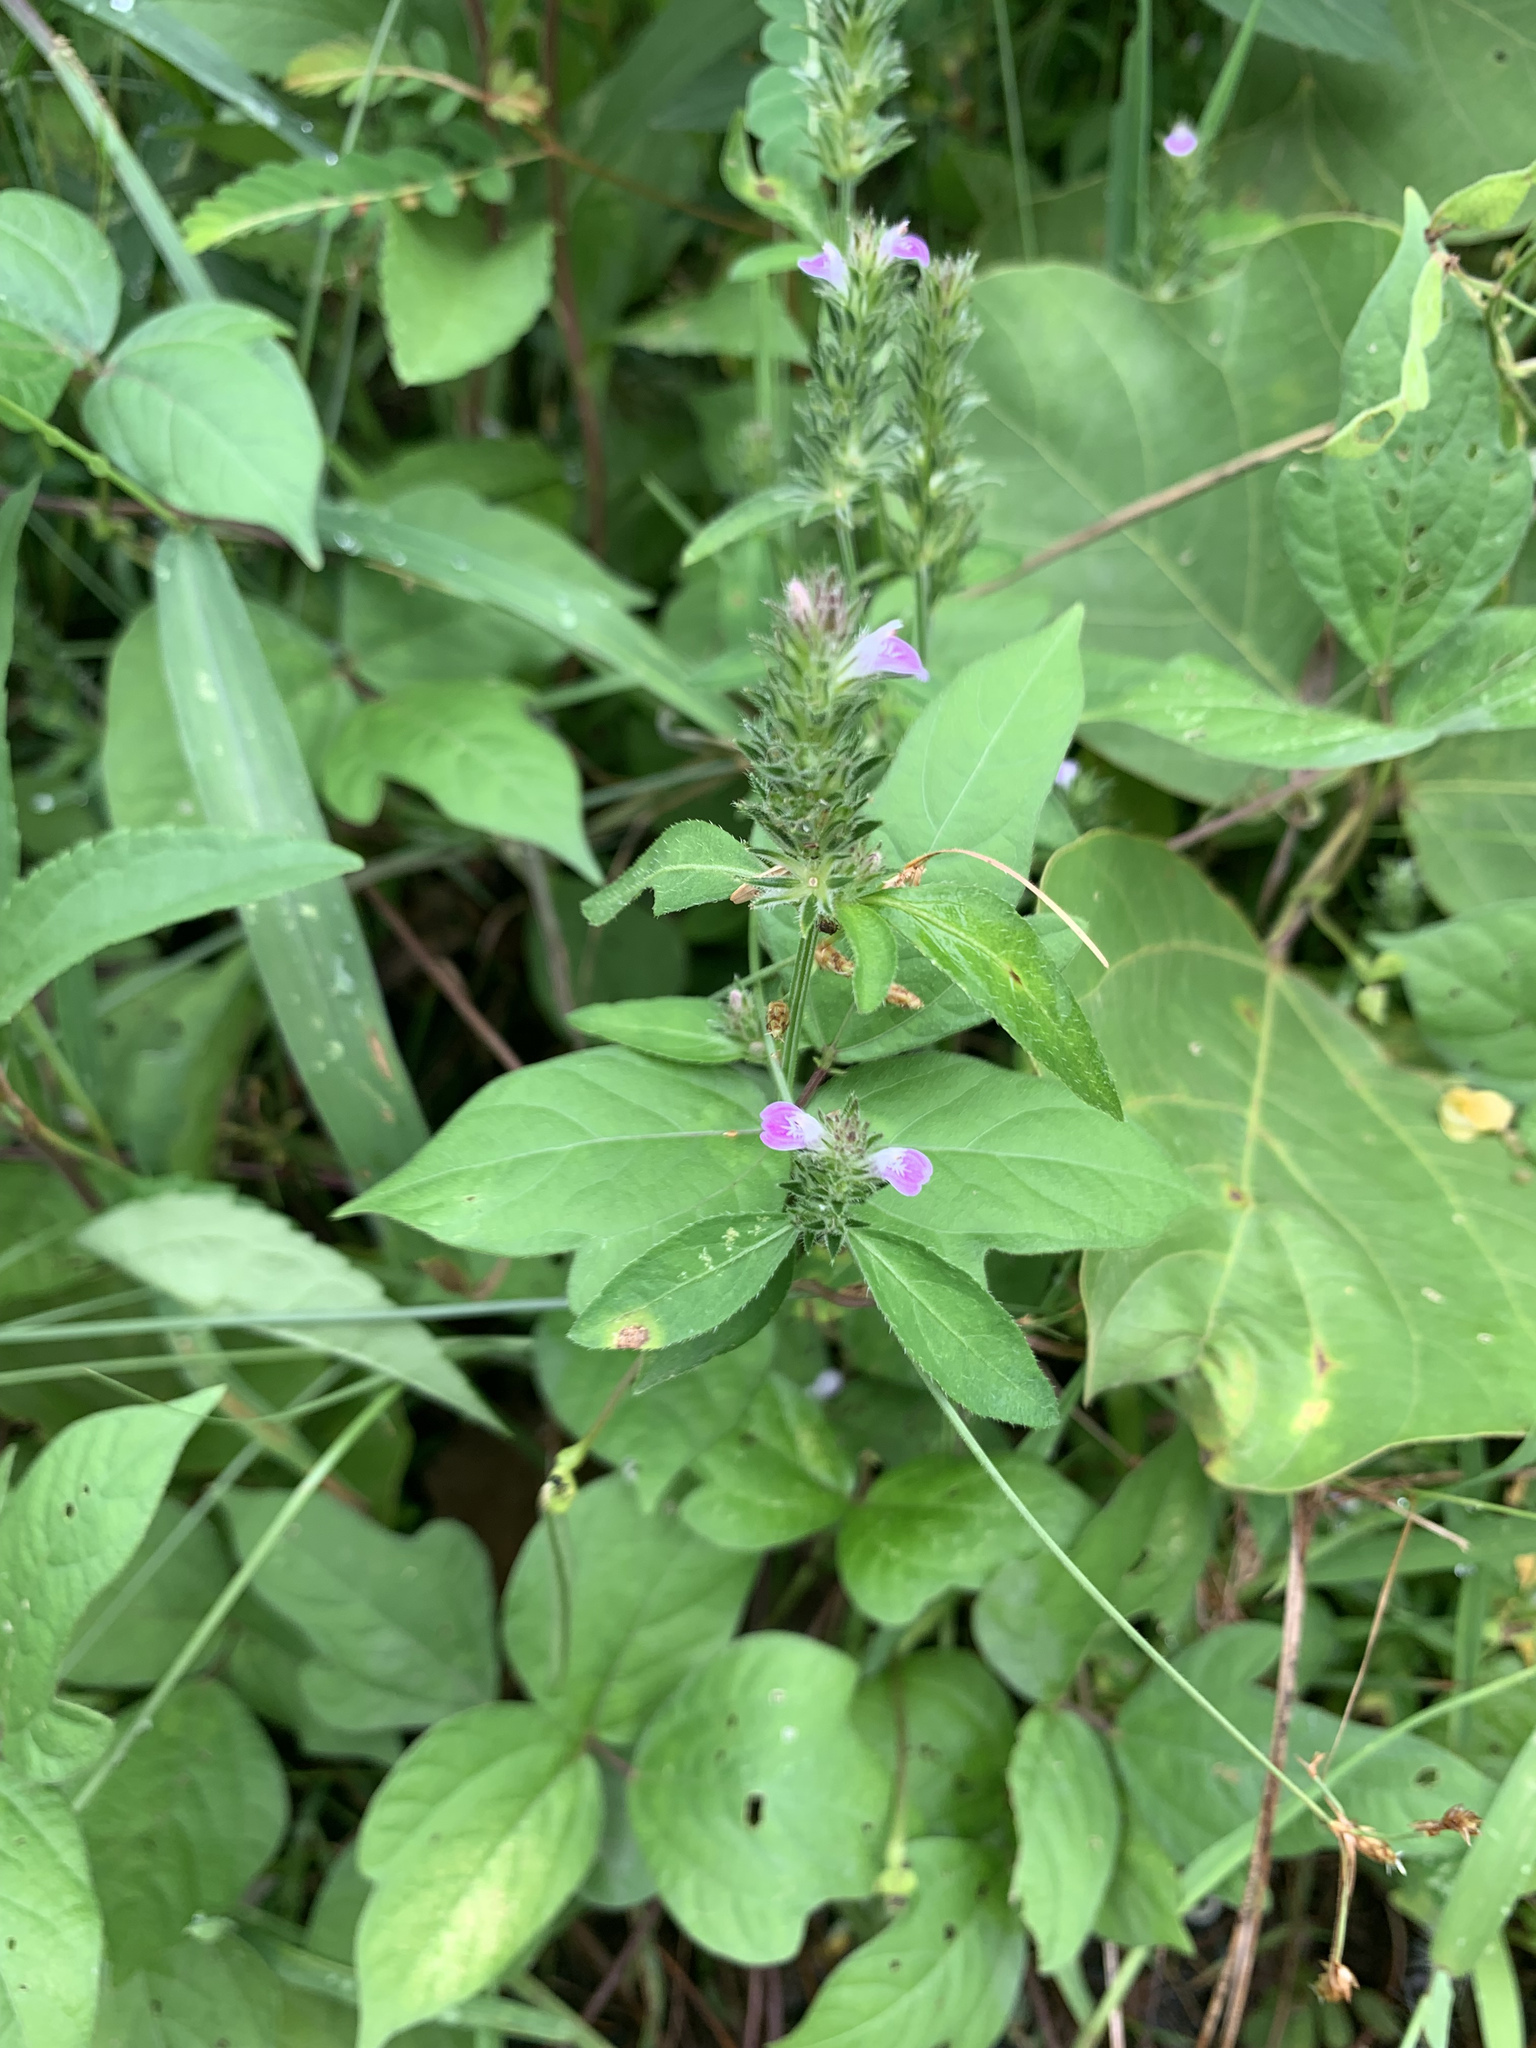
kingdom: Plantae
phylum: Tracheophyta
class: Magnoliopsida
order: Lamiales
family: Acanthaceae
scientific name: Acanthaceae
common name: Acanthaceae
